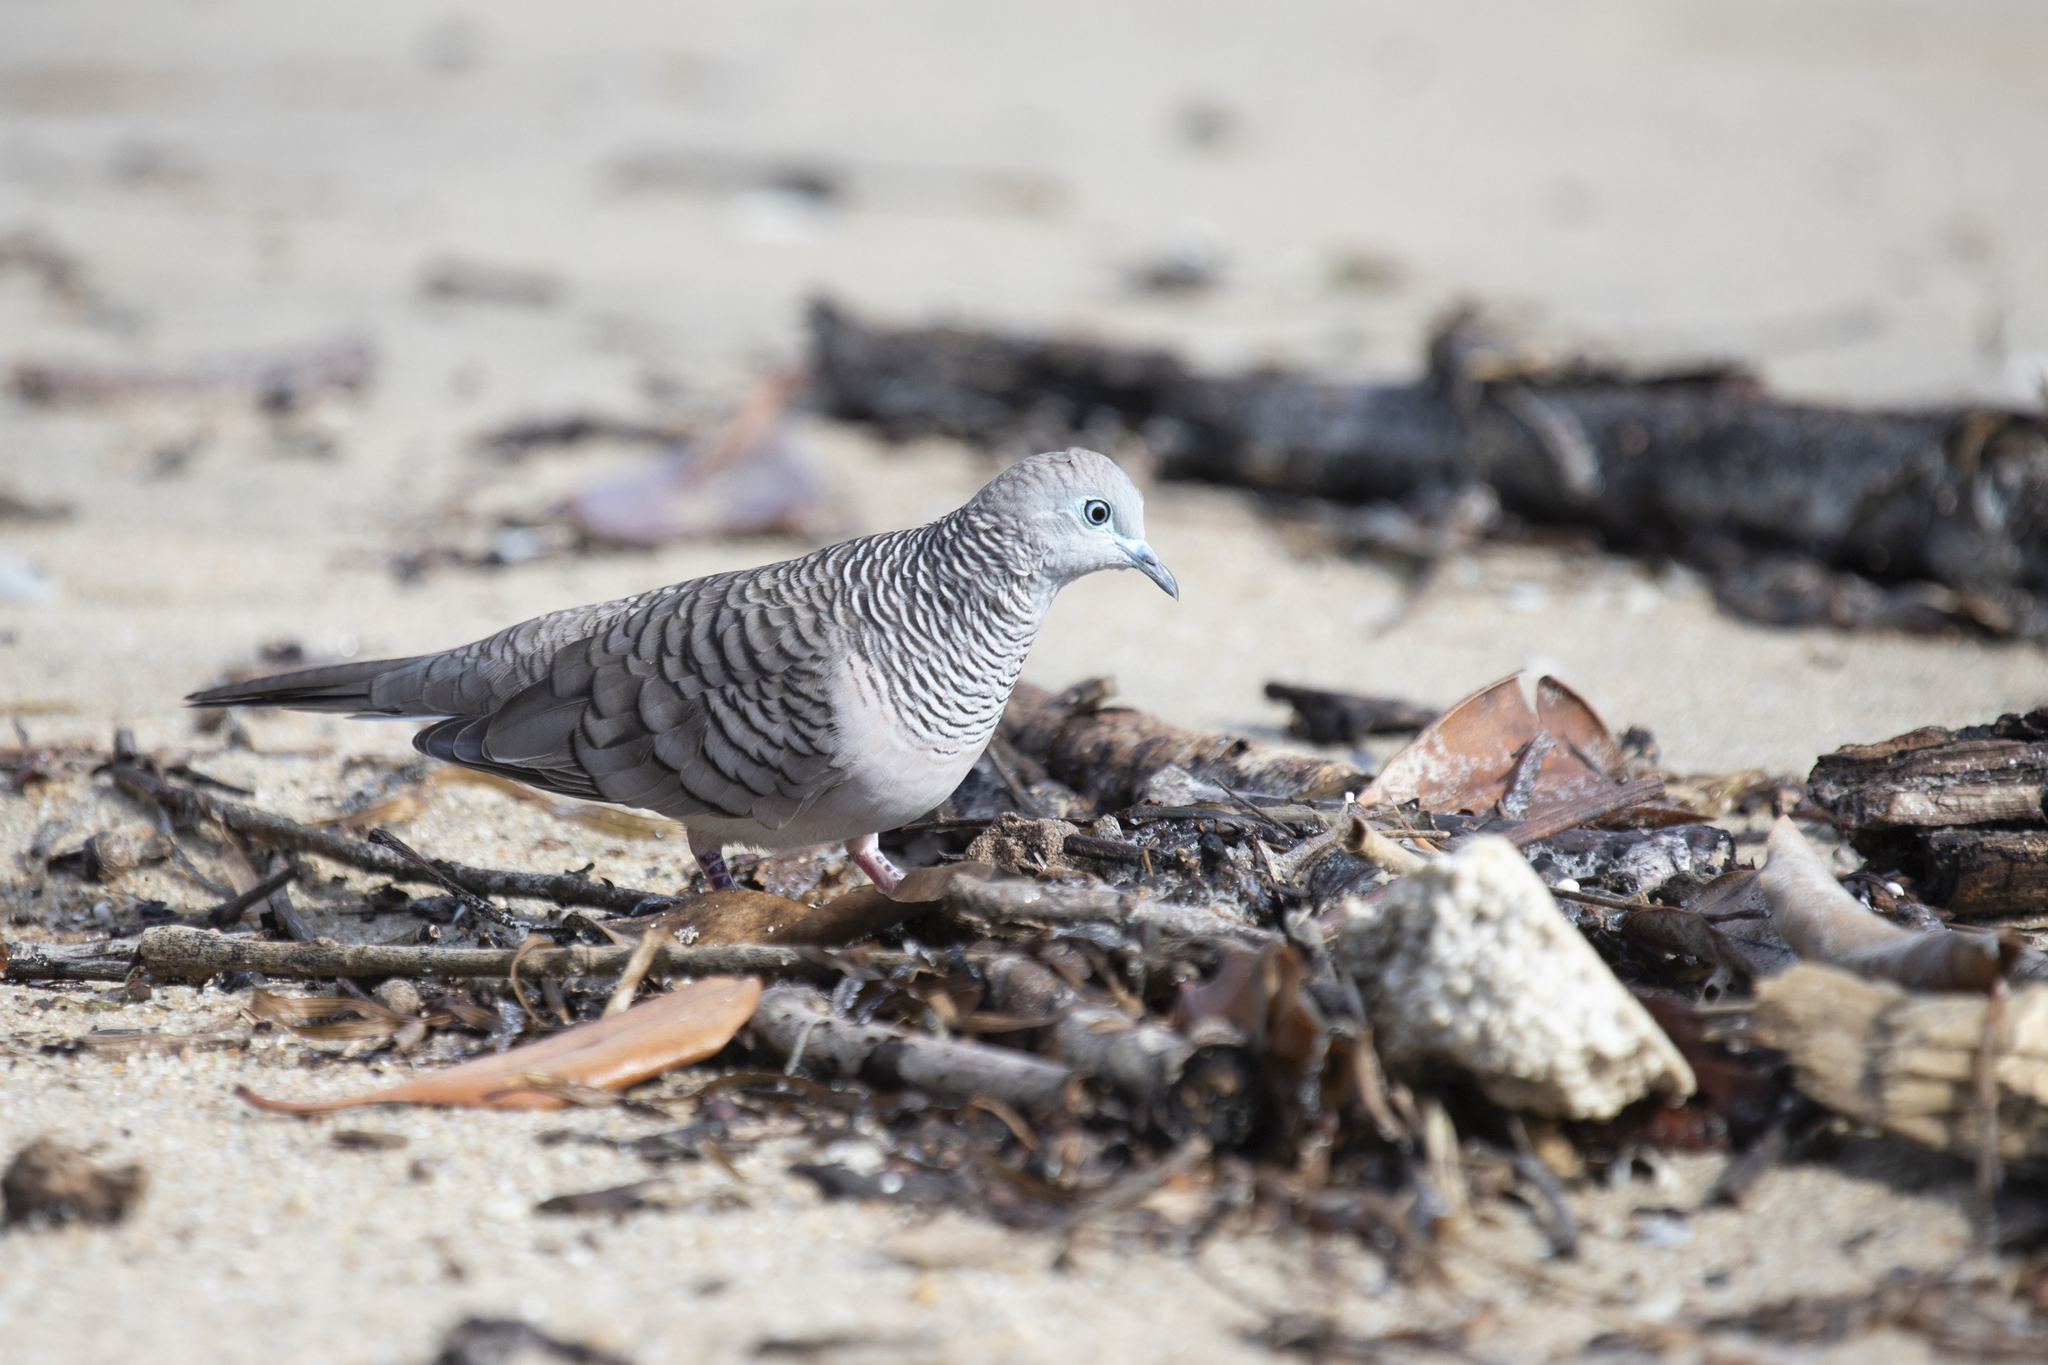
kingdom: Animalia
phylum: Chordata
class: Aves
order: Columbiformes
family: Columbidae
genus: Geopelia
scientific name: Geopelia placida
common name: Peaceful dove
